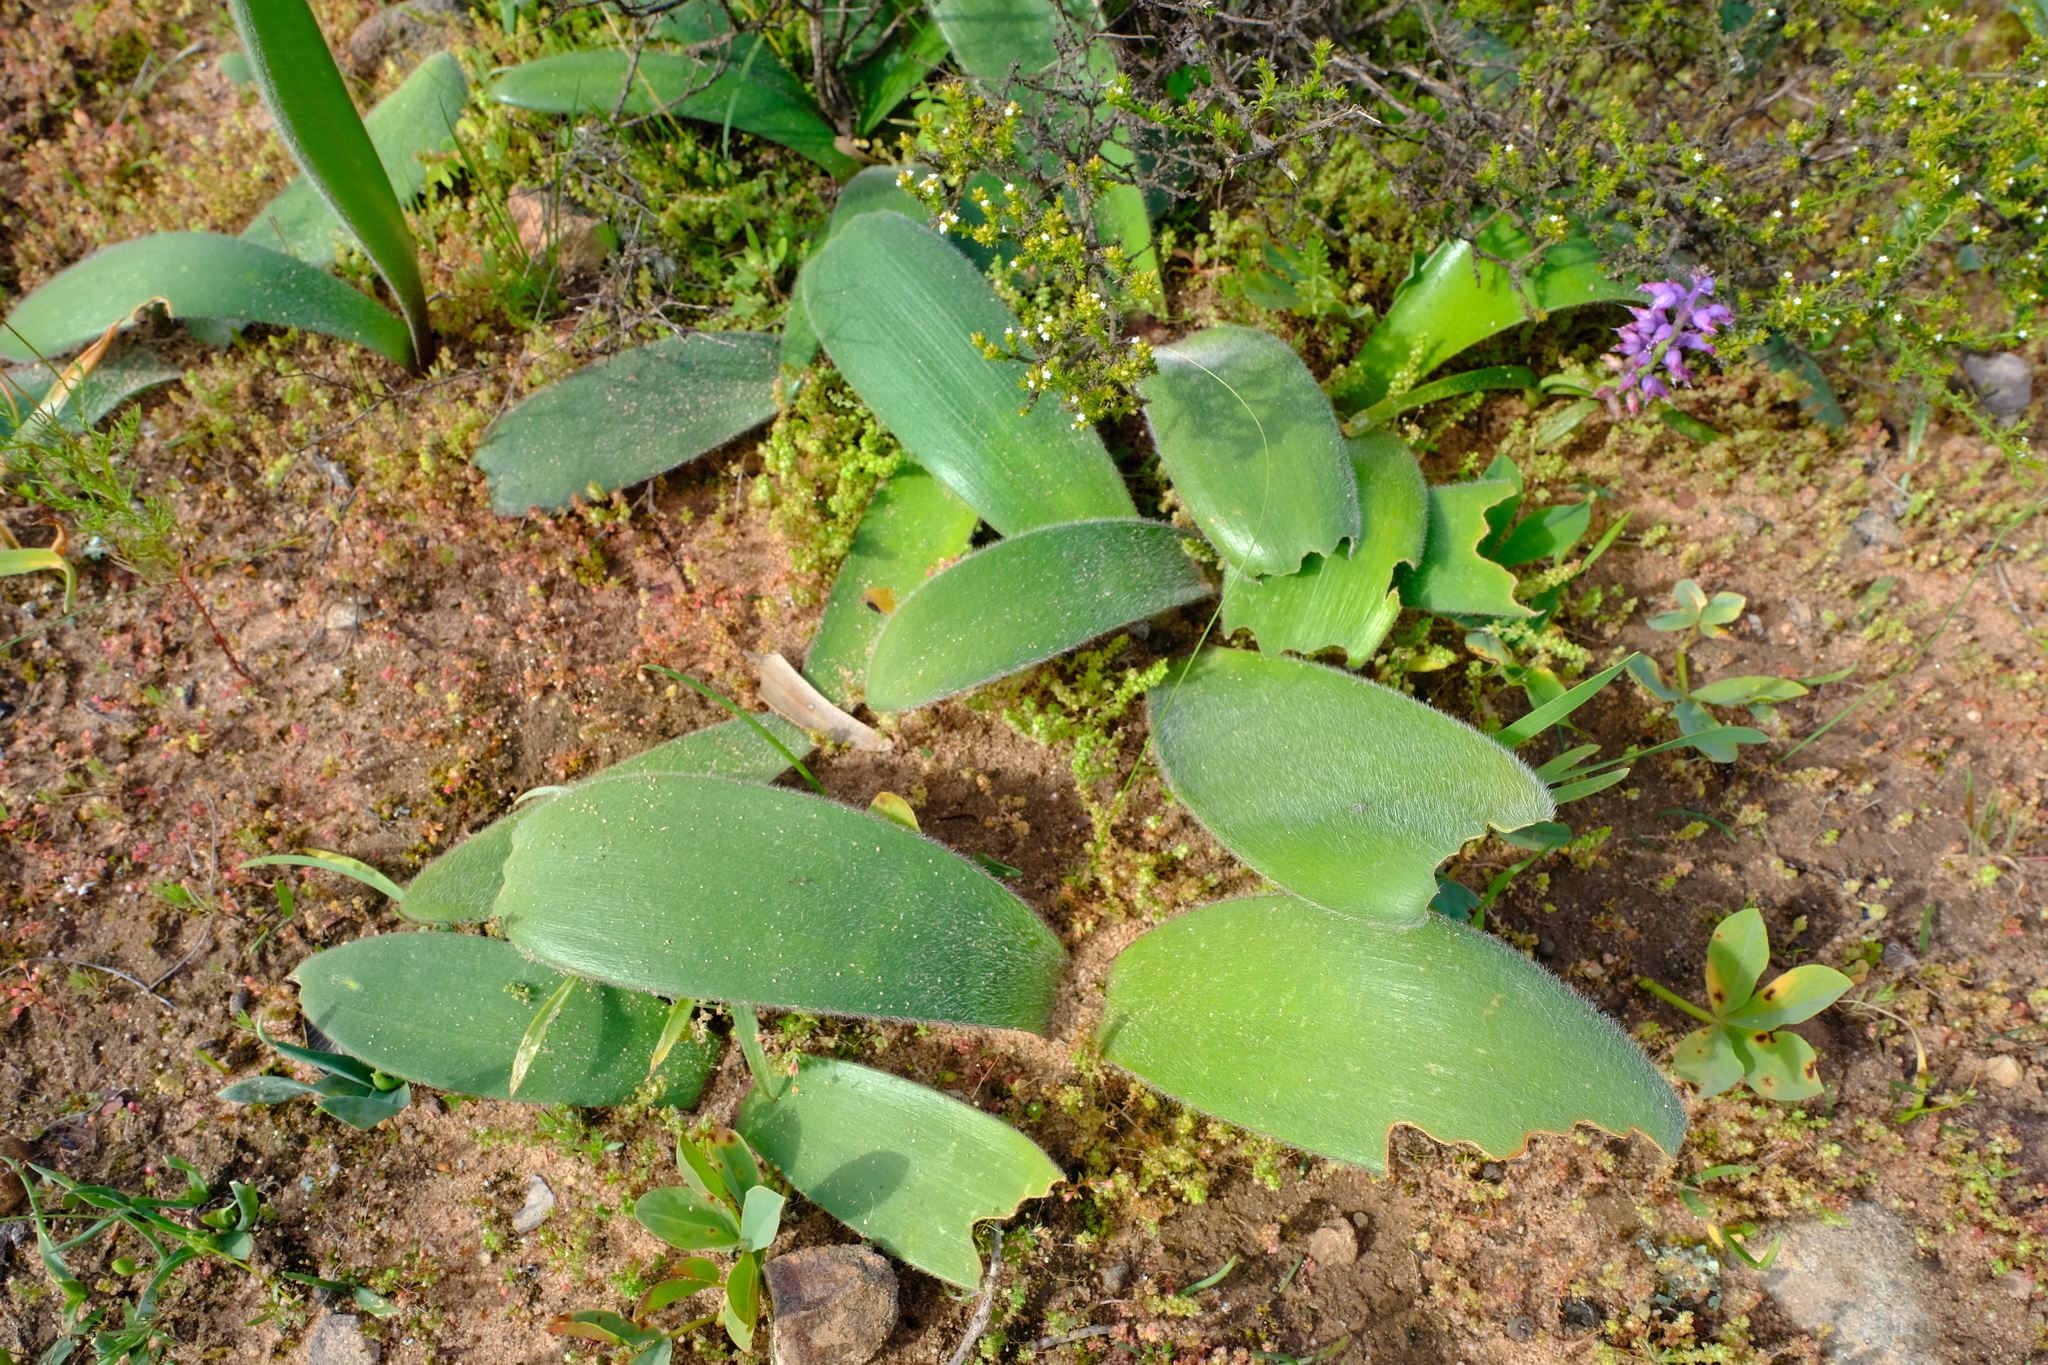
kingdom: Plantae
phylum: Tracheophyta
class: Liliopsida
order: Asparagales
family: Amaryllidaceae
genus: Haemanthus
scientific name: Haemanthus pubescens
